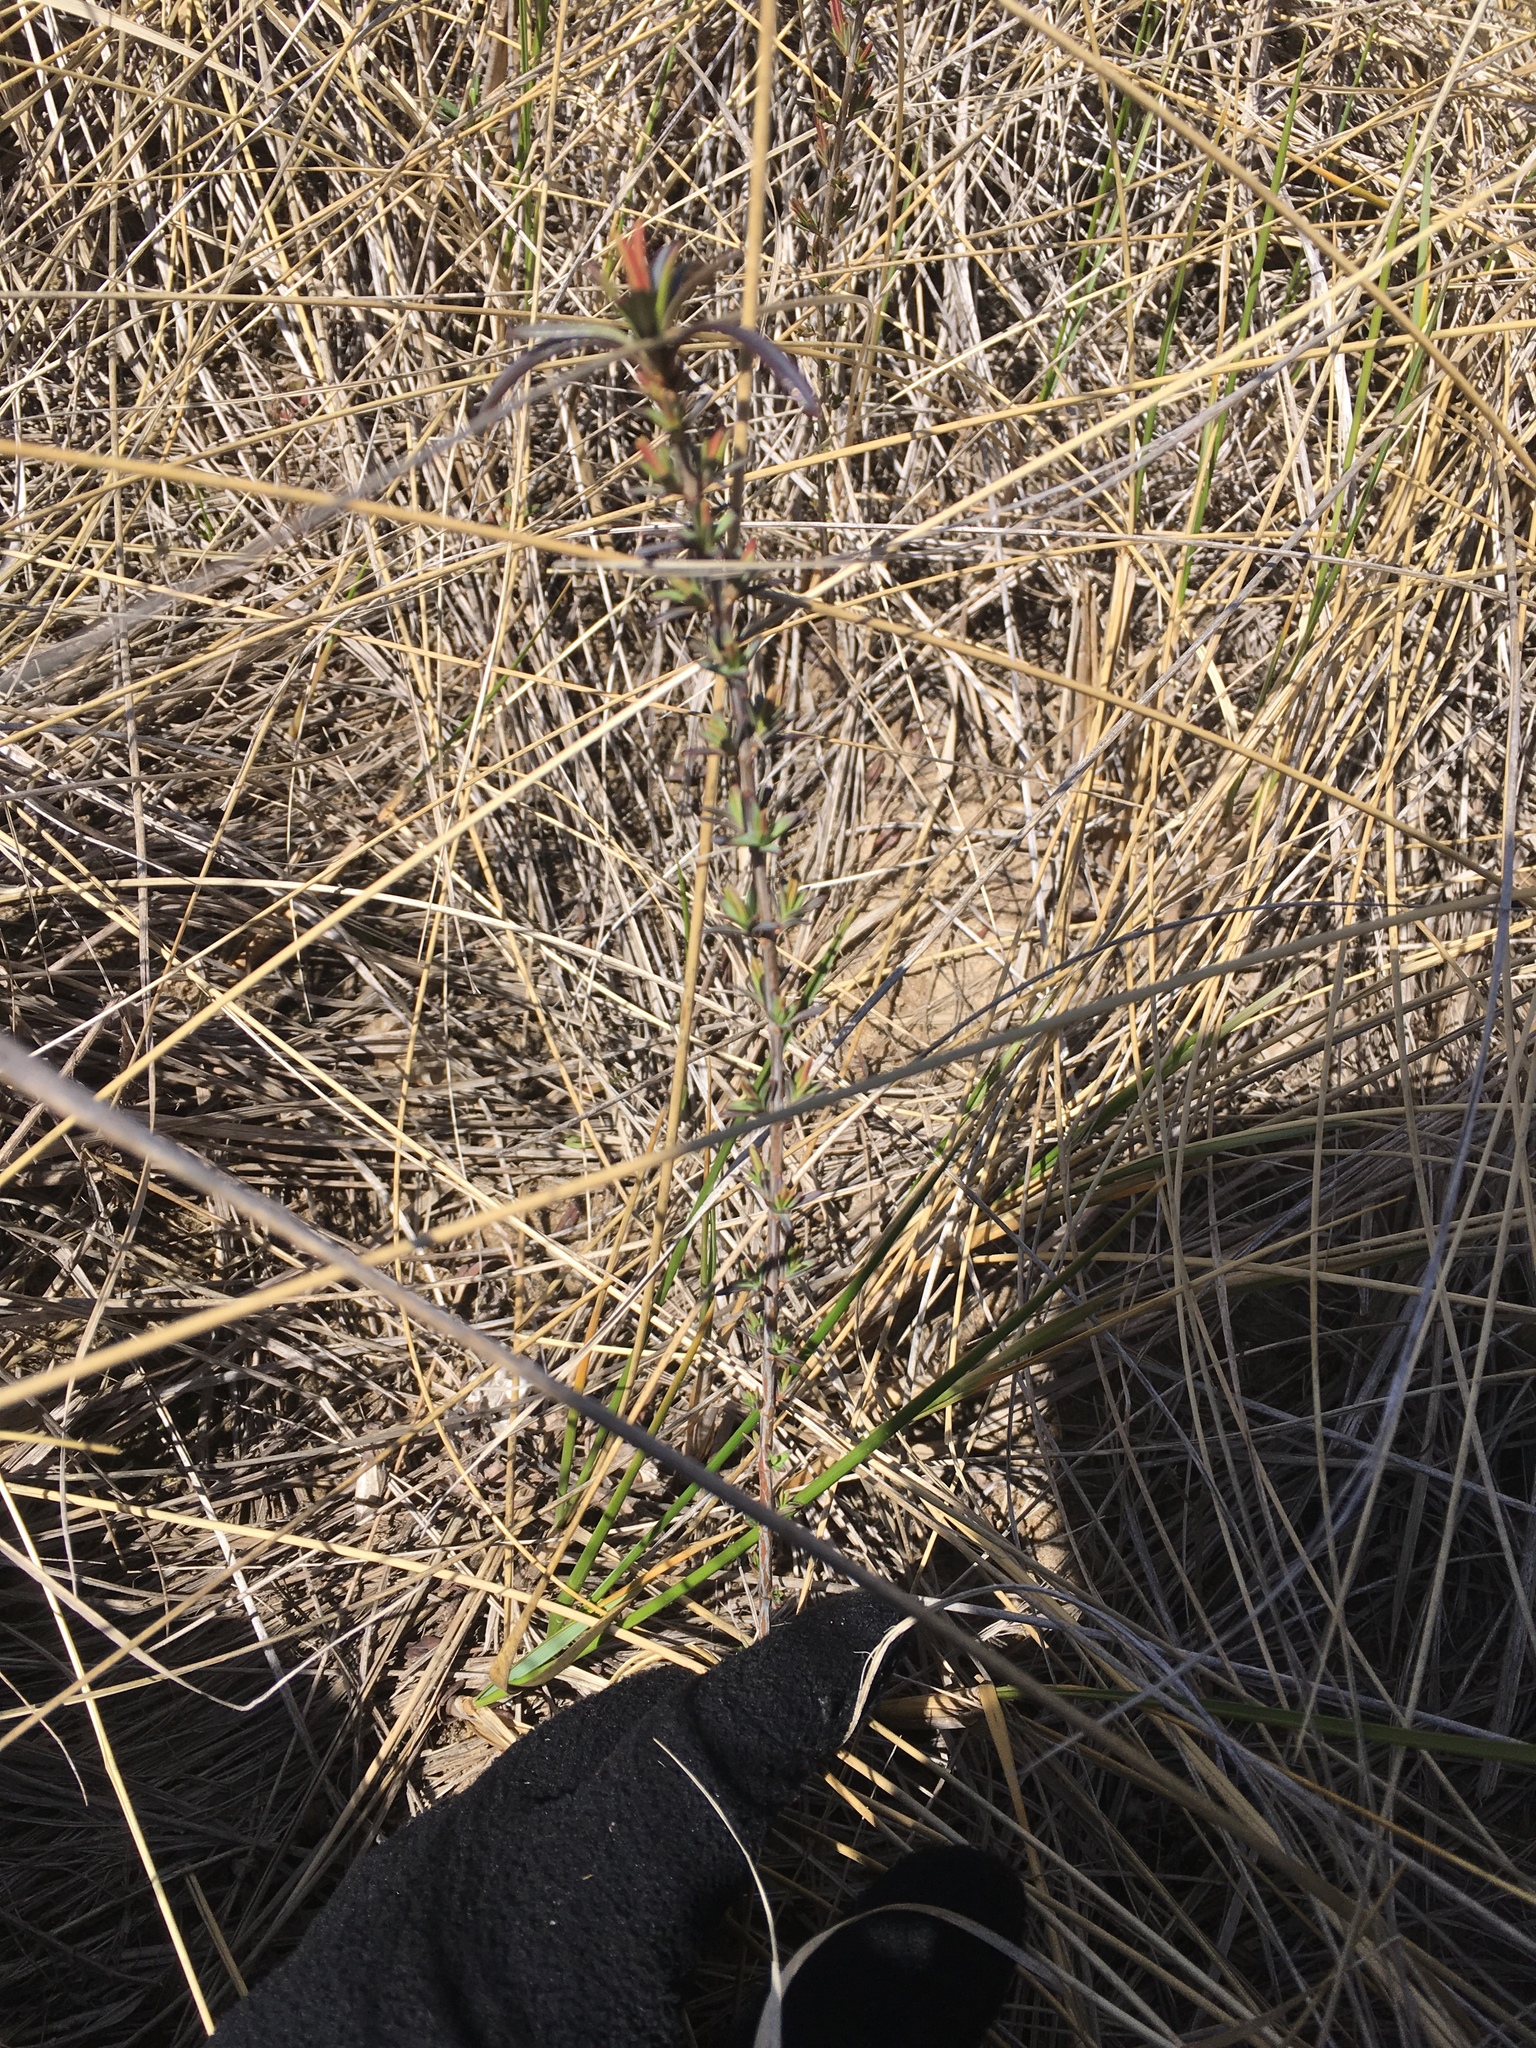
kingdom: Plantae
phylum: Tracheophyta
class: Magnoliopsida
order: Malpighiales
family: Hypericaceae
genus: Hypericum
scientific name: Hypericum kalmianum
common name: Kalm's st. john's-wort
